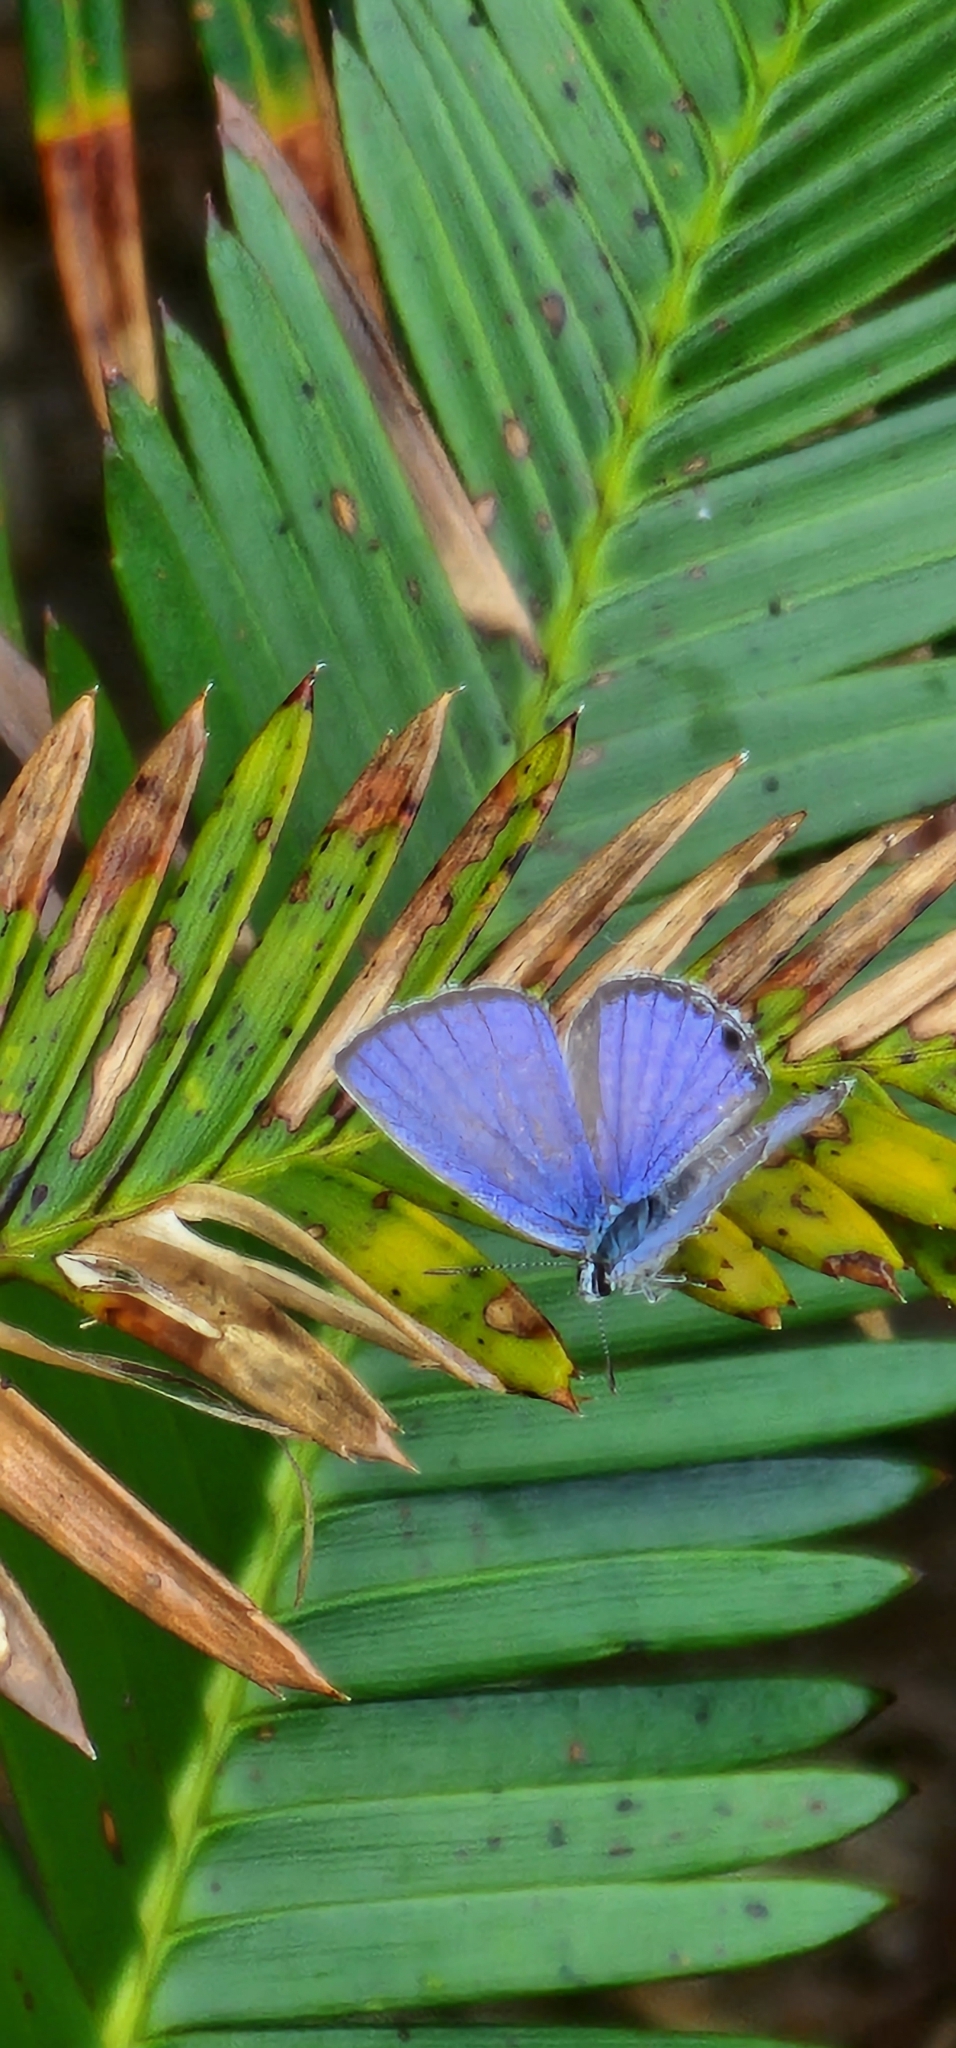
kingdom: Animalia
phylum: Arthropoda
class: Insecta
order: Lepidoptera
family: Lycaenidae
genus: Luthrodes
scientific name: Luthrodes pandava
